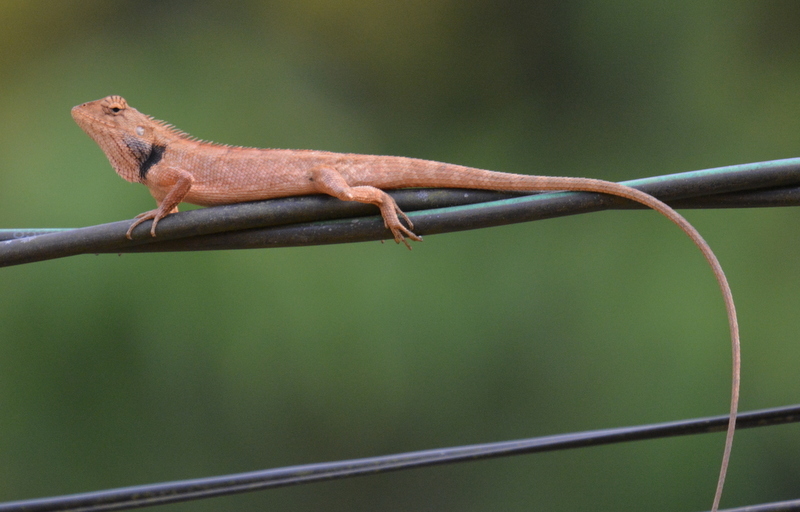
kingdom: Animalia
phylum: Chordata
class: Squamata
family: Agamidae
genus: Calotes
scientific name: Calotes versicolor
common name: Oriental garden lizard
